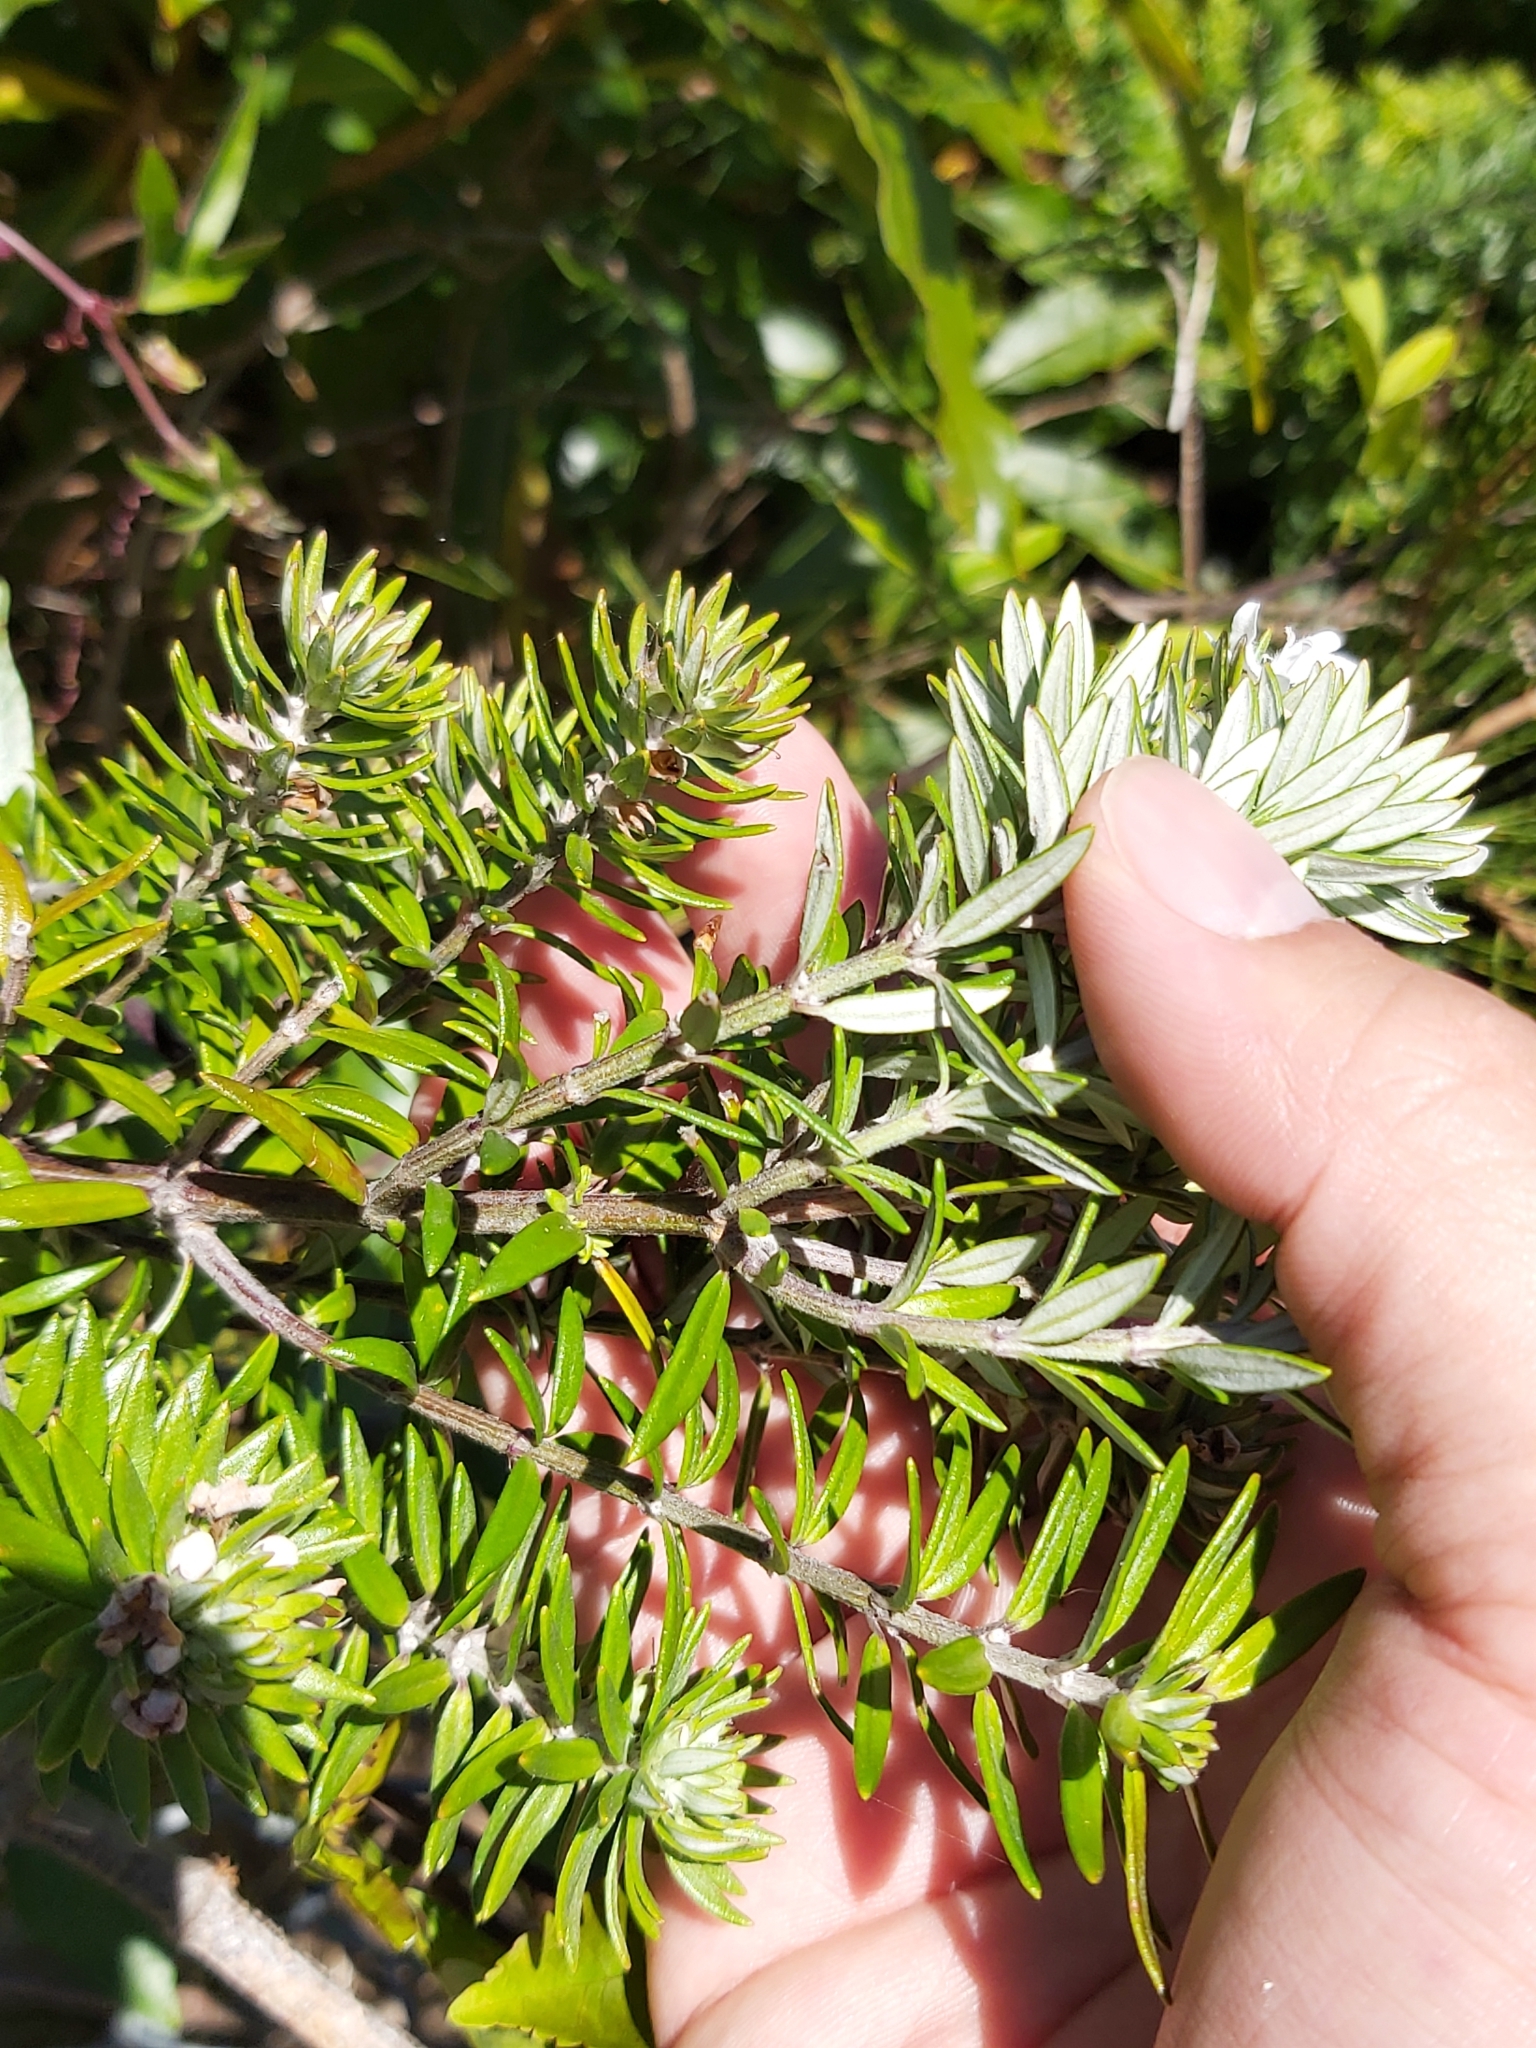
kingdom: Plantae
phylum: Tracheophyta
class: Magnoliopsida
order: Lamiales
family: Lamiaceae
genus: Westringia
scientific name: Westringia fruticosa
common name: Coastal-rosemary
